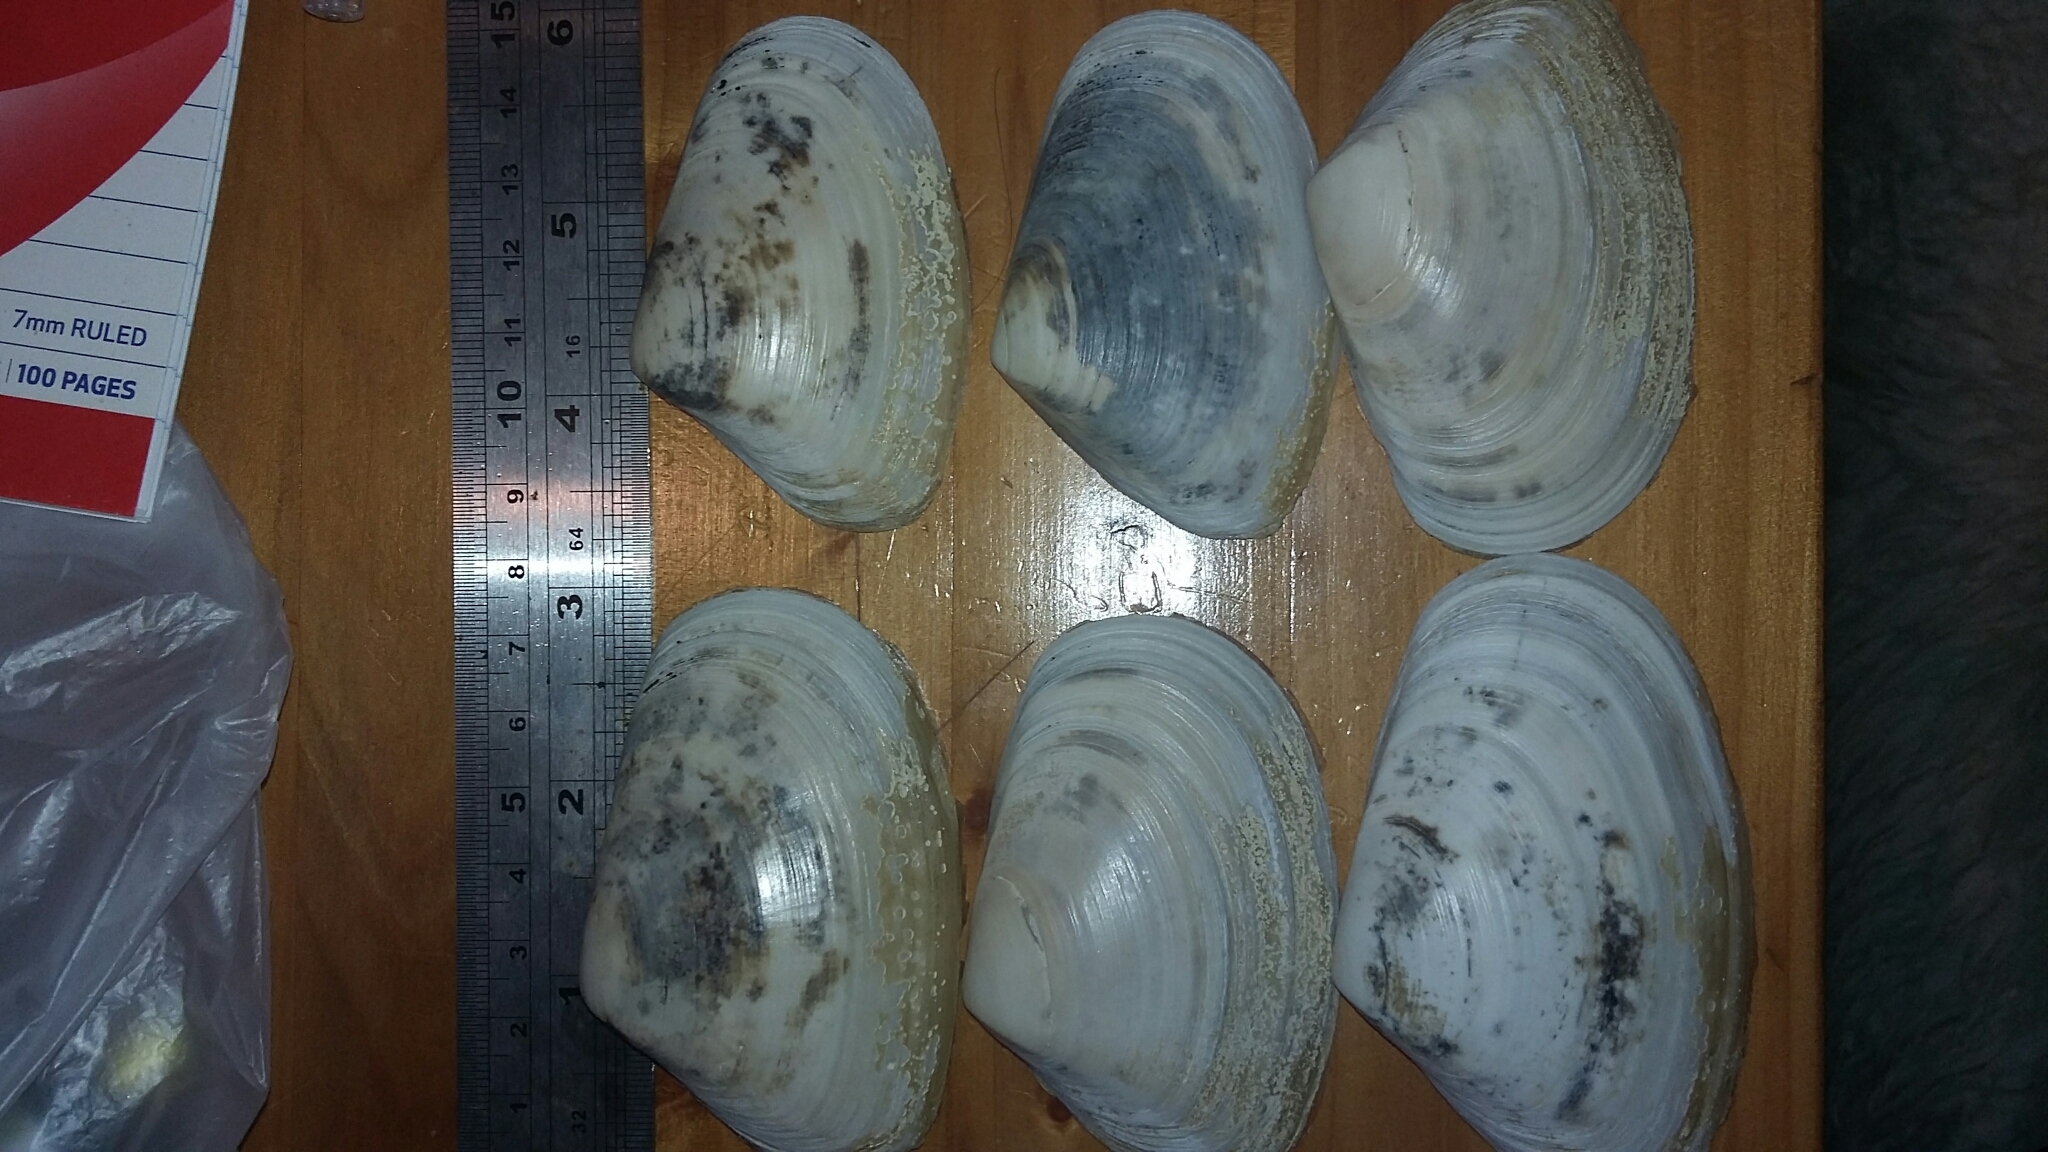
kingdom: Animalia
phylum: Mollusca
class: Bivalvia
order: Venerida
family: Mesodesmatidae
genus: Paphies
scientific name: Paphies donacina
